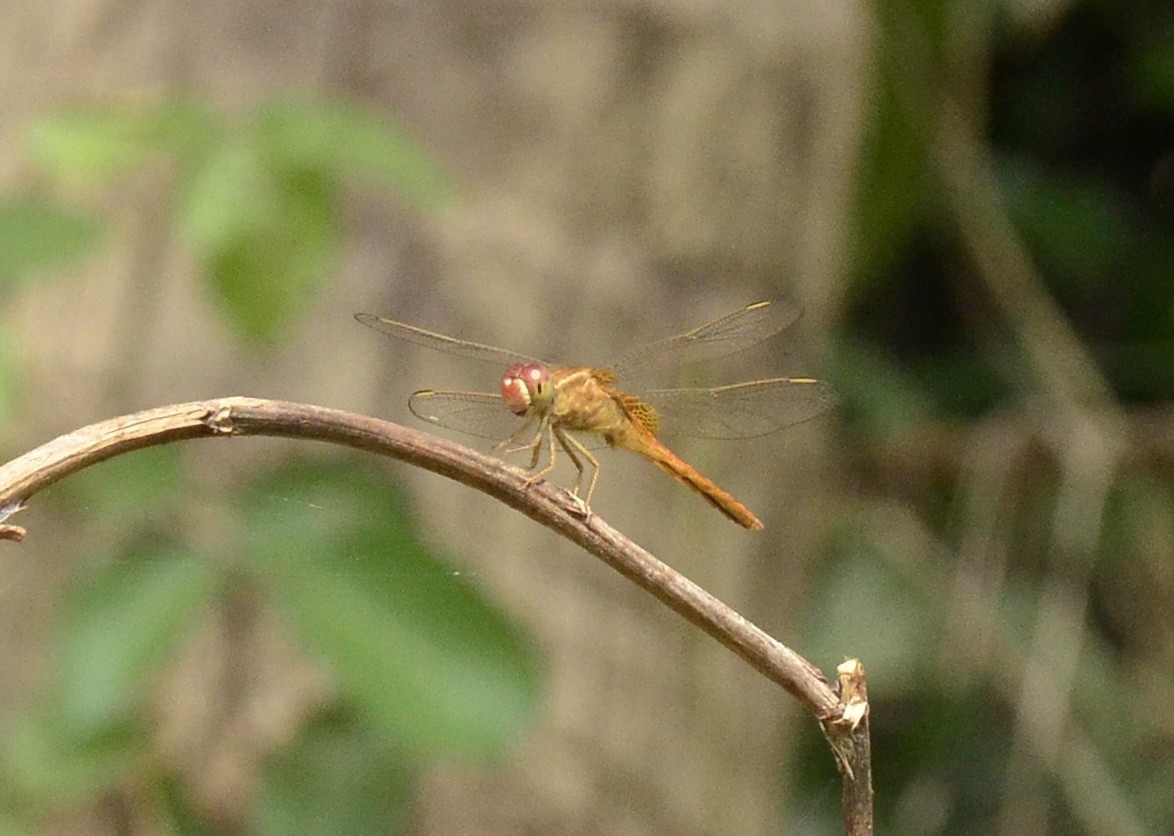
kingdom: Animalia
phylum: Arthropoda
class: Insecta
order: Odonata
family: Libellulidae
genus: Crocothemis
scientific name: Crocothemis servilia
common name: Scarlet skimmer
